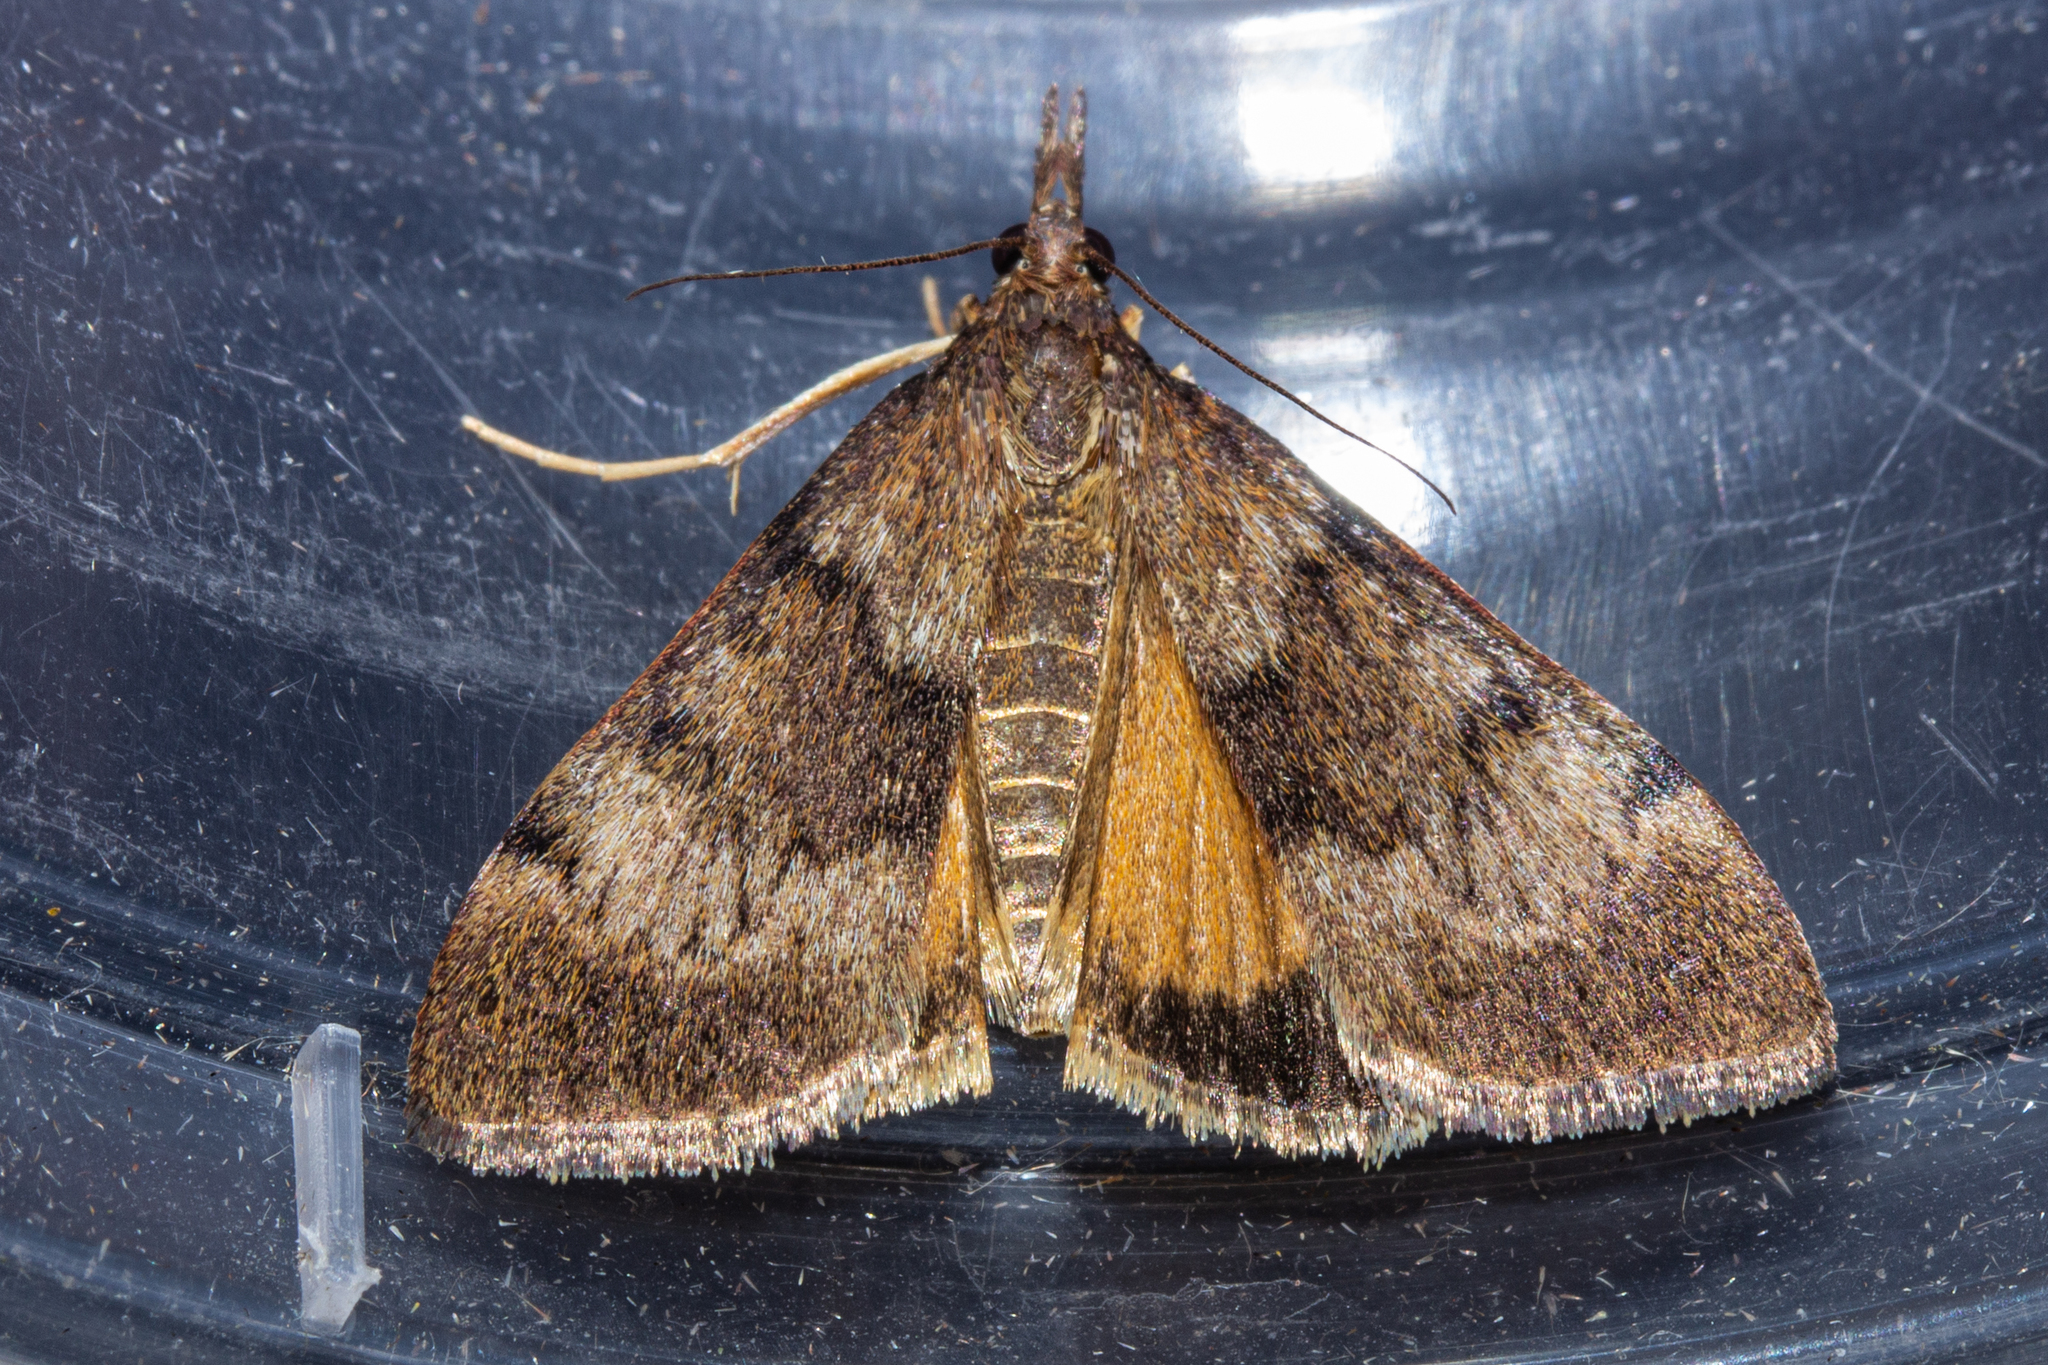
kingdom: Animalia
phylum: Arthropoda
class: Insecta
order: Lepidoptera
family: Crambidae
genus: Uresiphita
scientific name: Uresiphita
